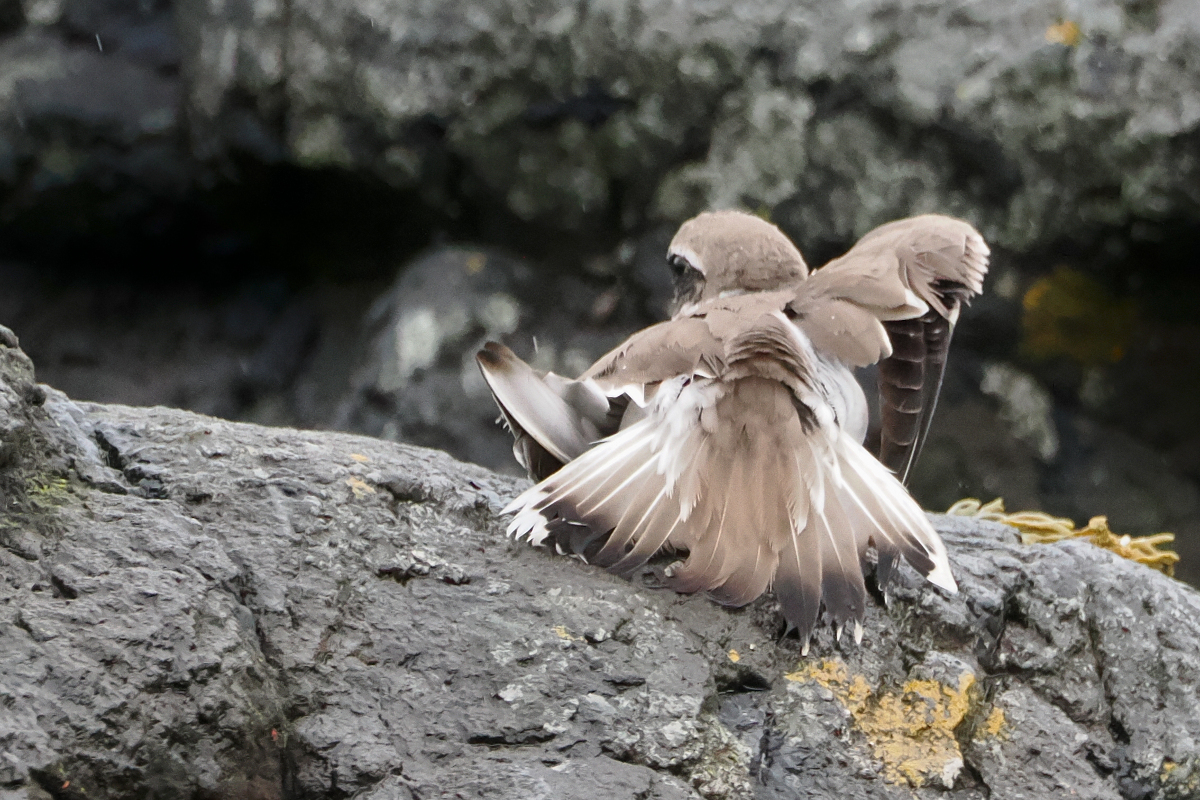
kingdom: Animalia
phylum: Chordata
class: Aves
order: Charadriiformes
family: Charadriidae
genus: Charadrius
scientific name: Charadrius hiaticula
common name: Common ringed plover
